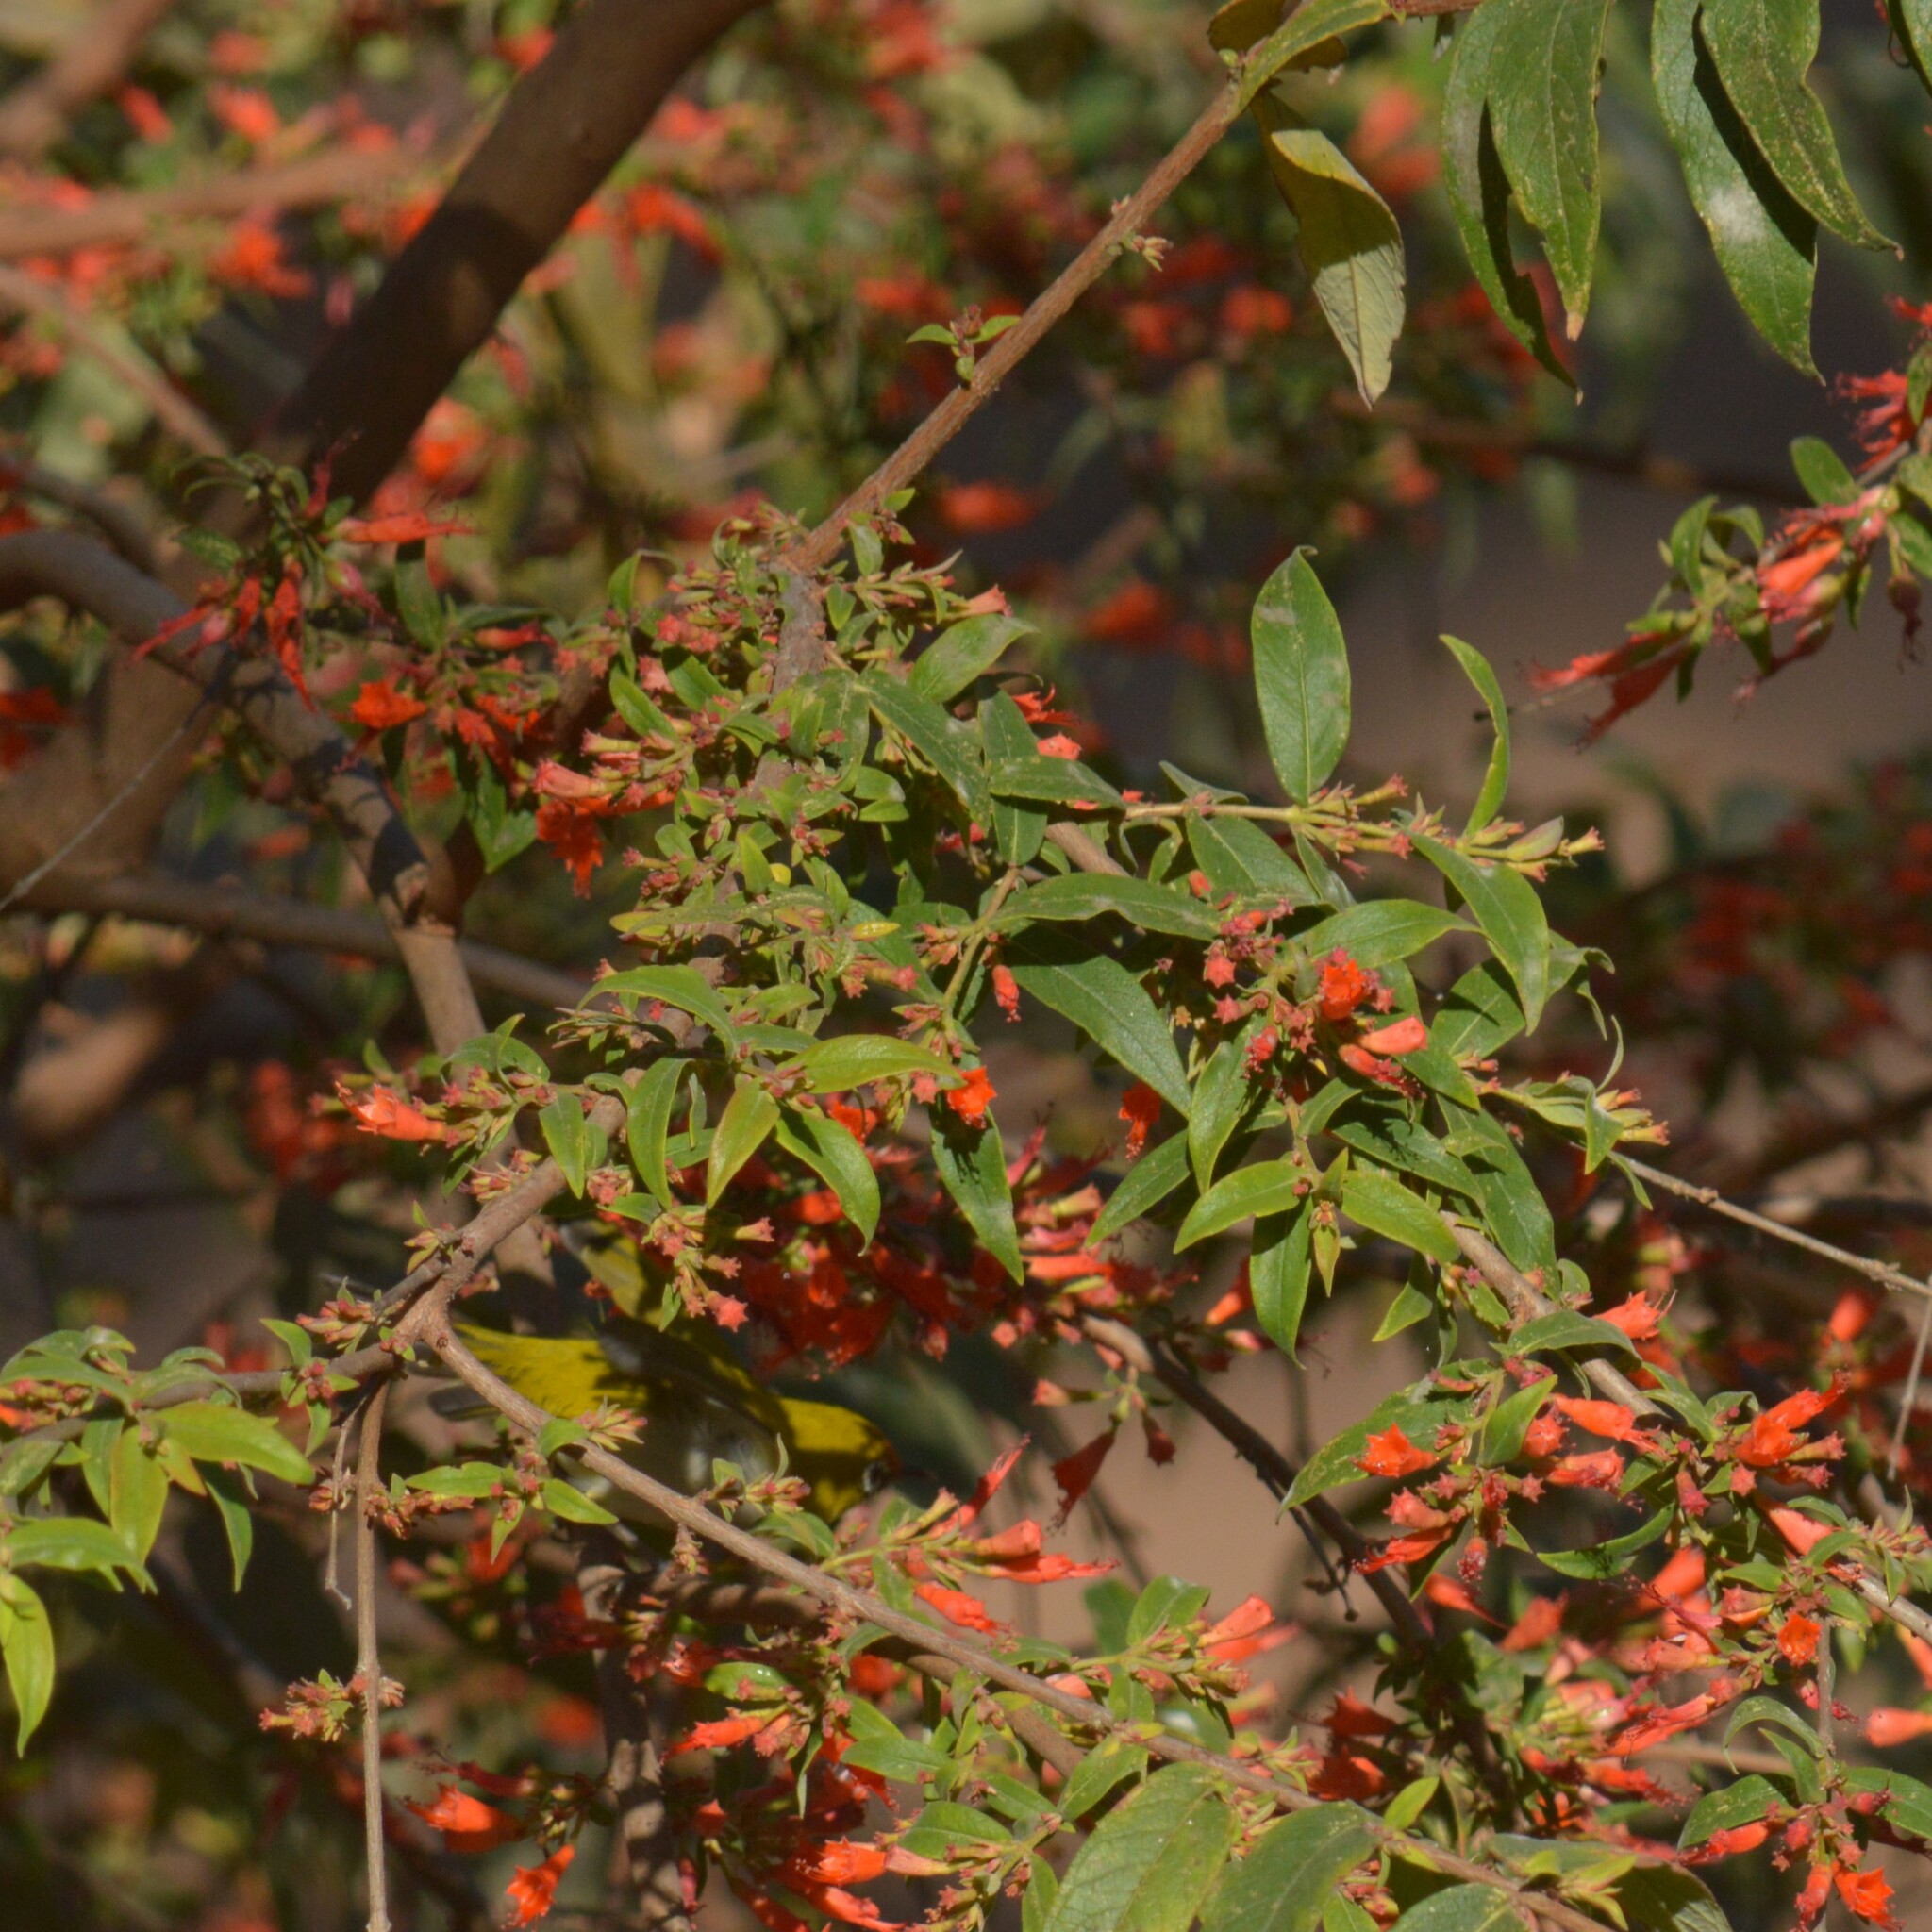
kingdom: Plantae
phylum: Tracheophyta
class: Magnoliopsida
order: Myrtales
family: Lythraceae
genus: Woodfordia
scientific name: Woodfordia fruticosa
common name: Shiranji-tea
